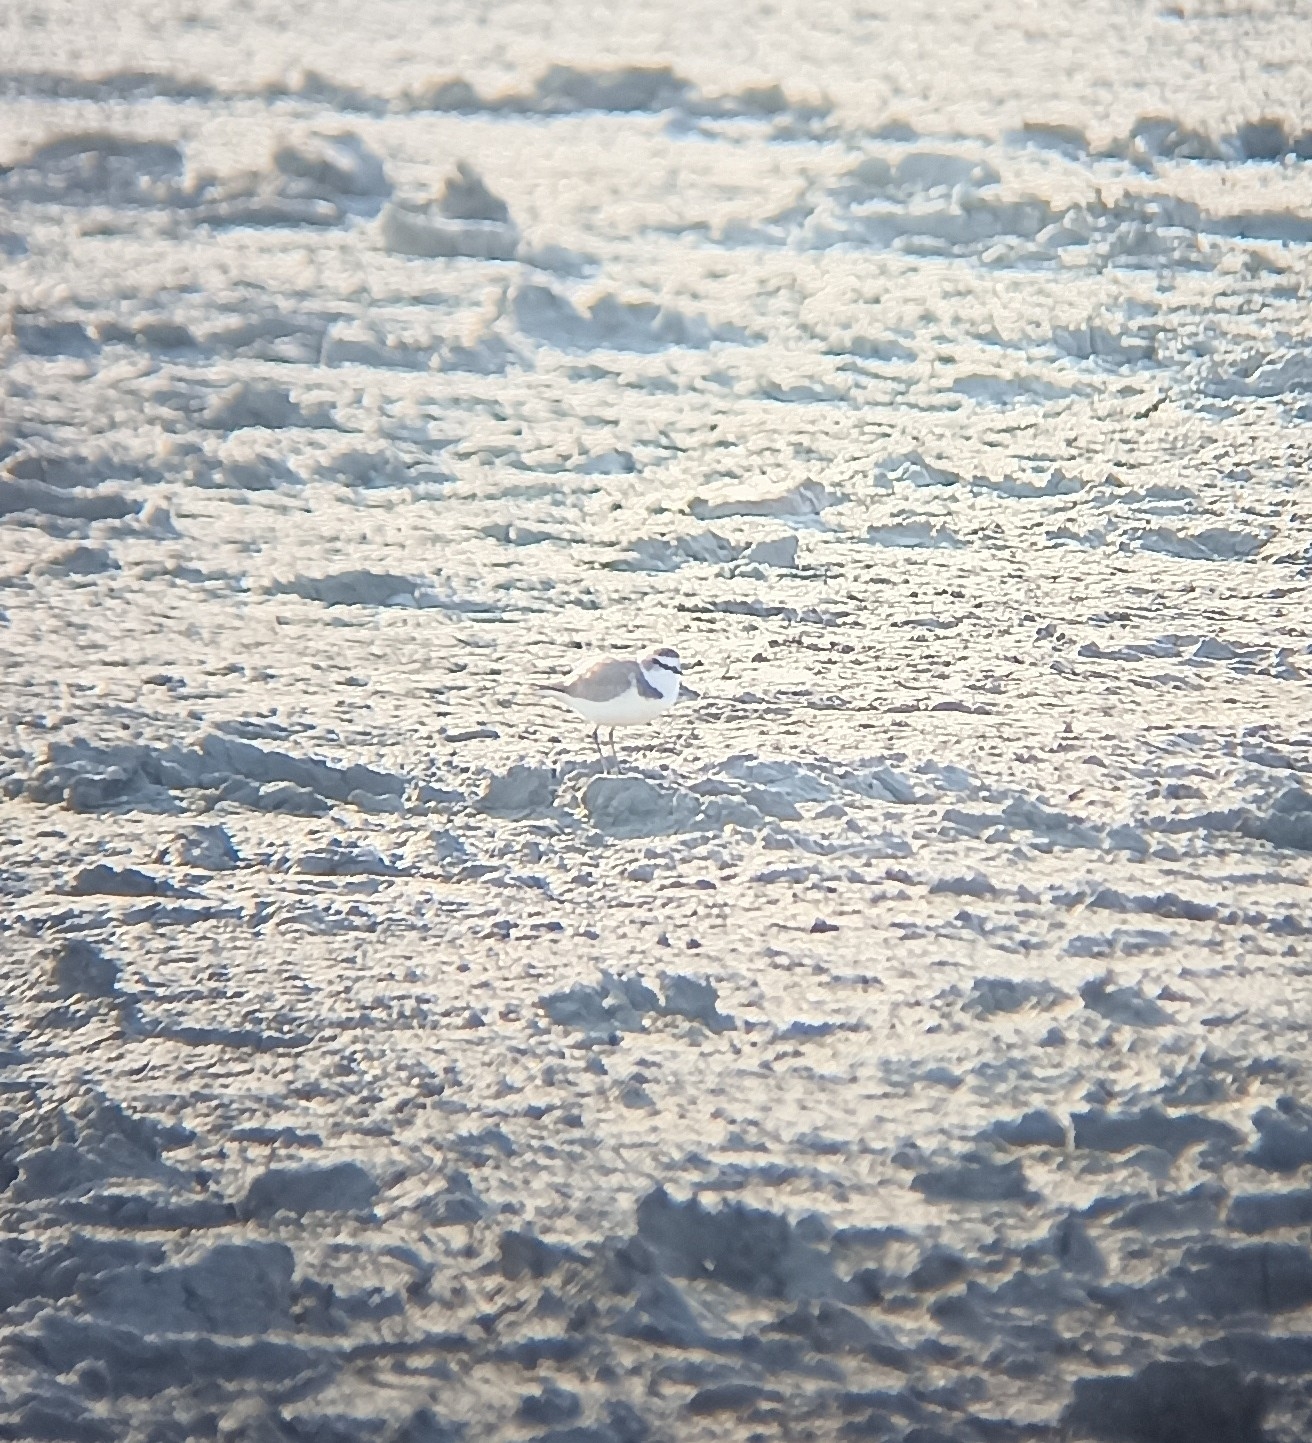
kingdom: Animalia
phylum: Chordata
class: Aves
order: Charadriiformes
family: Charadriidae
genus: Charadrius
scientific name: Charadrius alexandrinus
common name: Kentish plover
